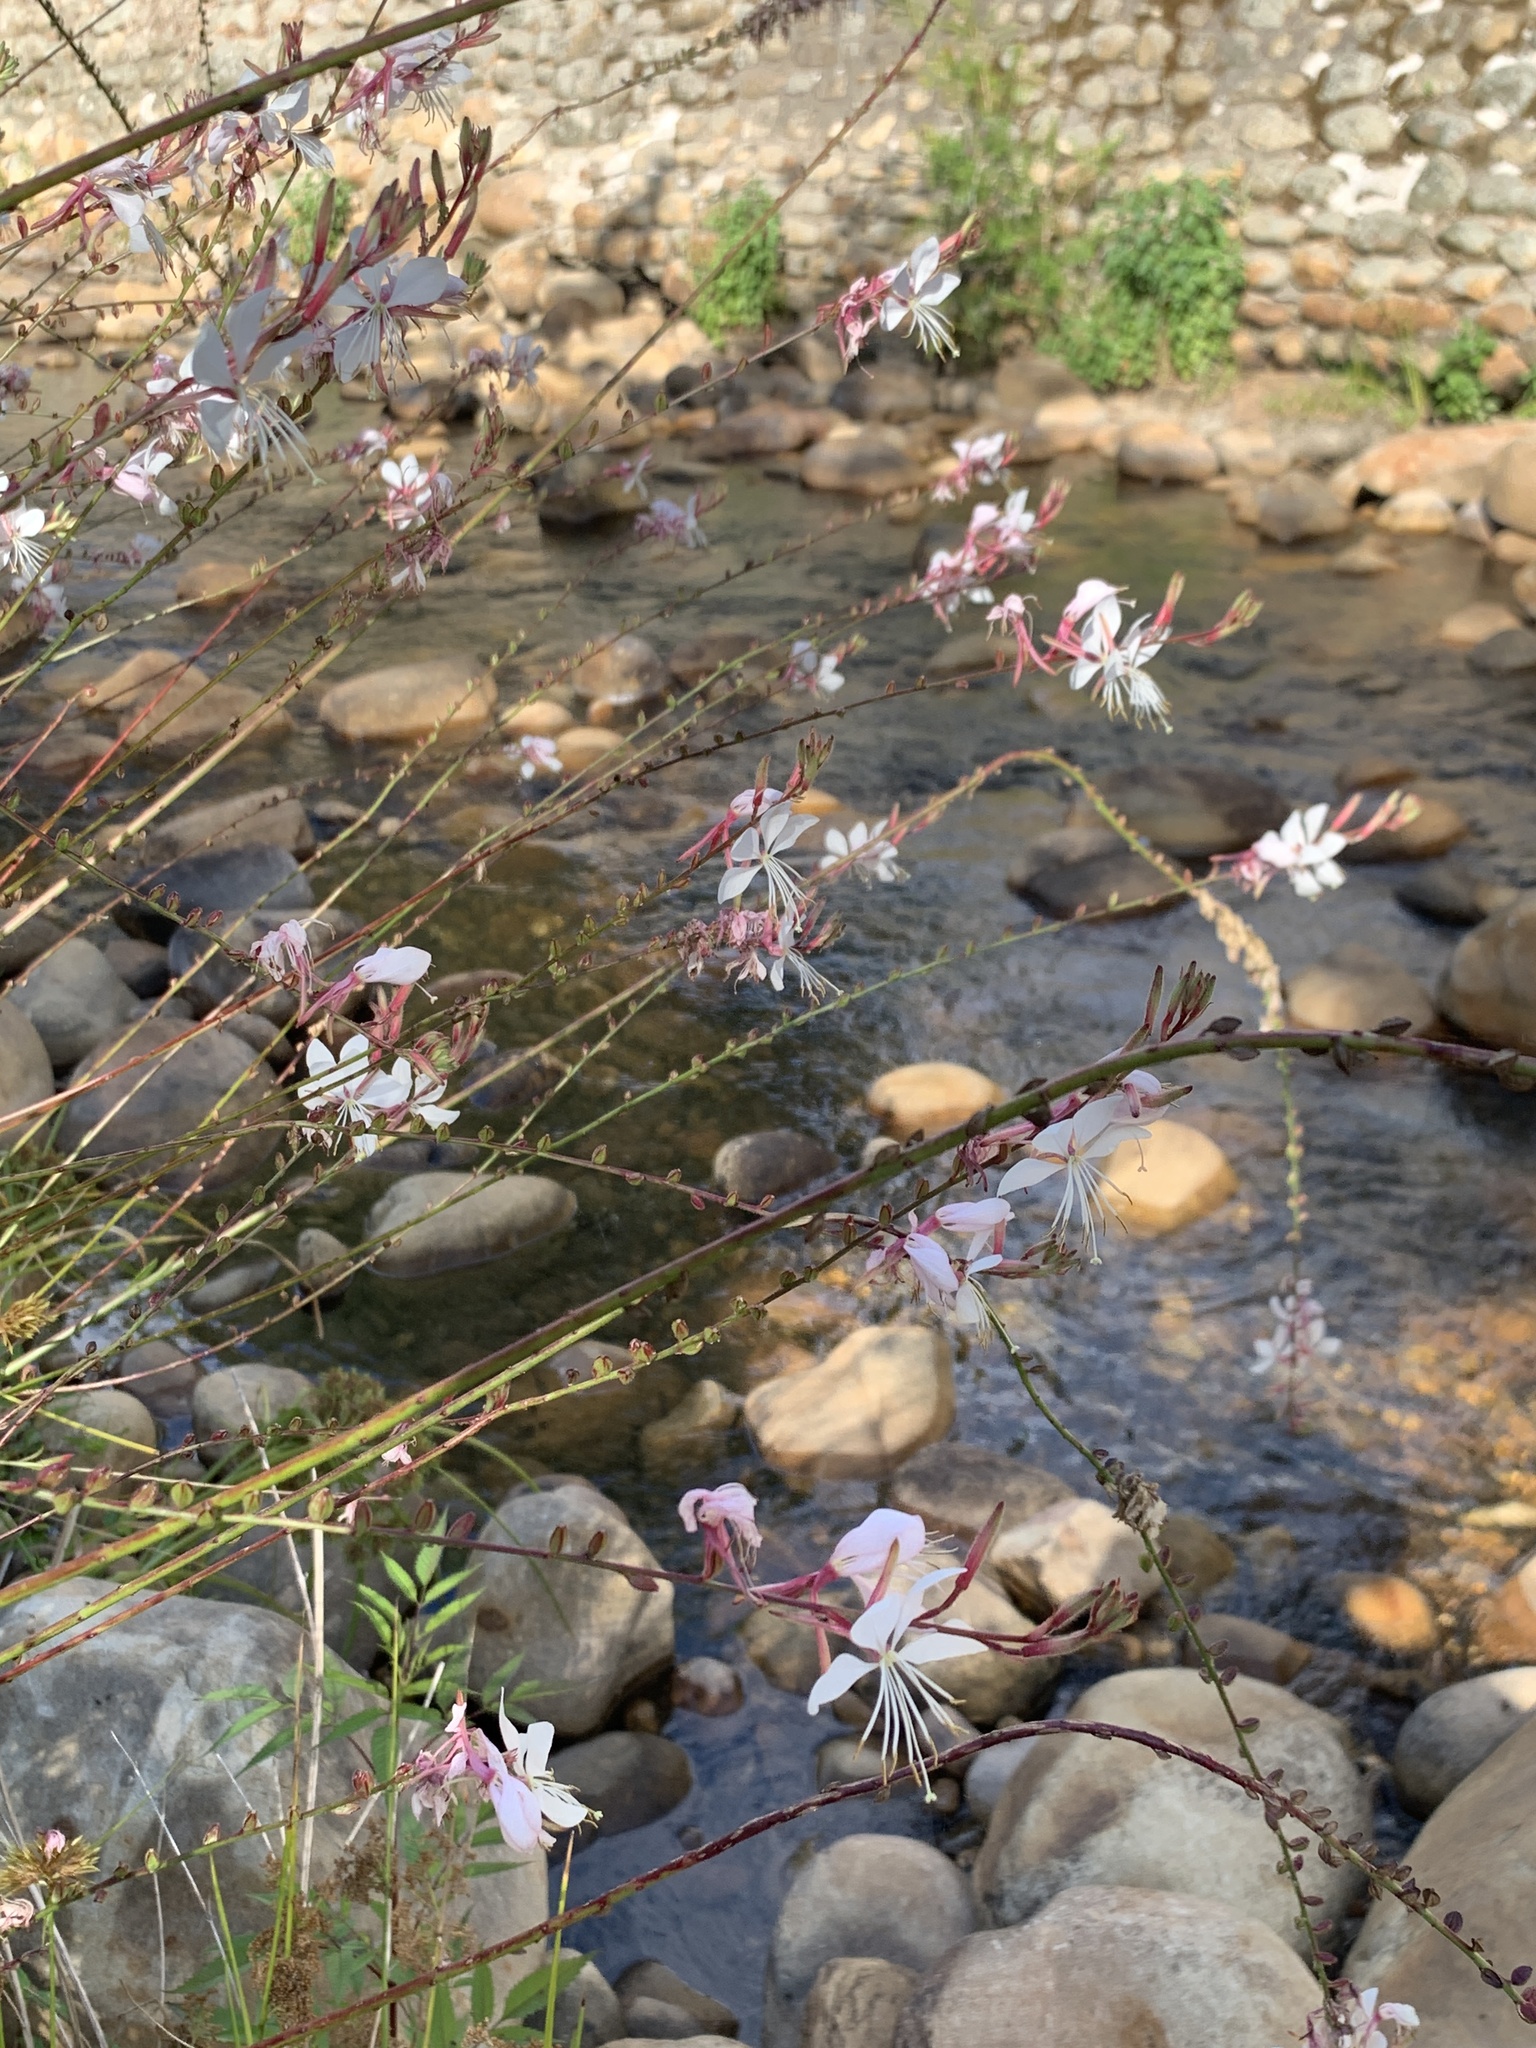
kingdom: Plantae
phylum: Tracheophyta
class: Magnoliopsida
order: Myrtales
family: Onagraceae
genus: Oenothera
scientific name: Oenothera lindheimeri
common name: Lindheimer's beeblossom
